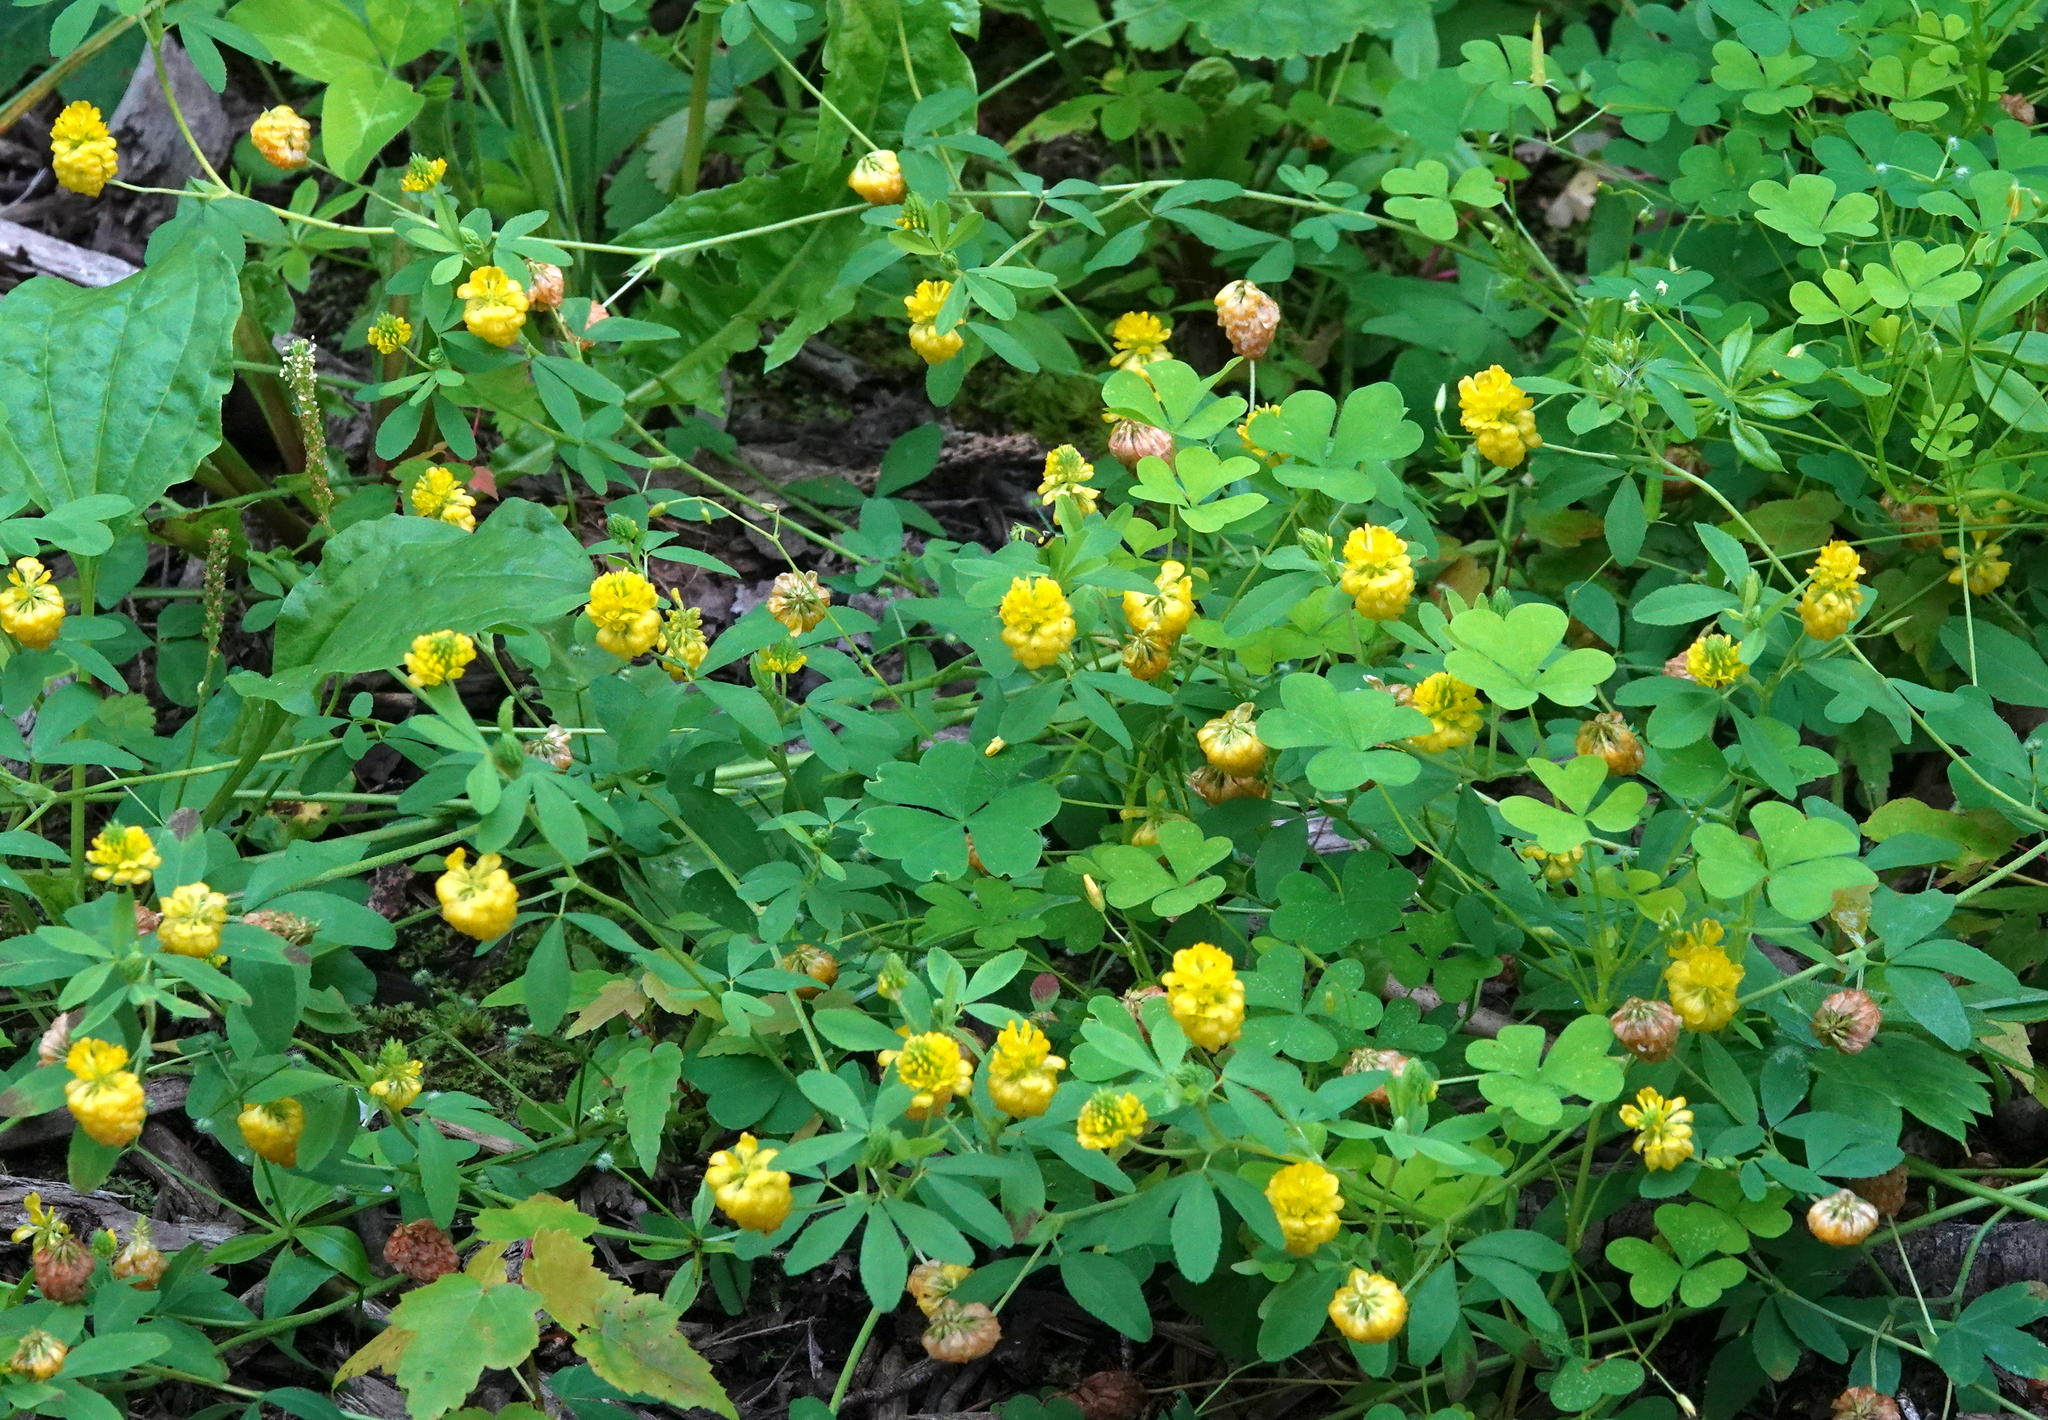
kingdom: Plantae
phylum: Tracheophyta
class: Magnoliopsida
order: Fabales
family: Fabaceae
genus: Trifolium
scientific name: Trifolium aureum
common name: Golden clover
